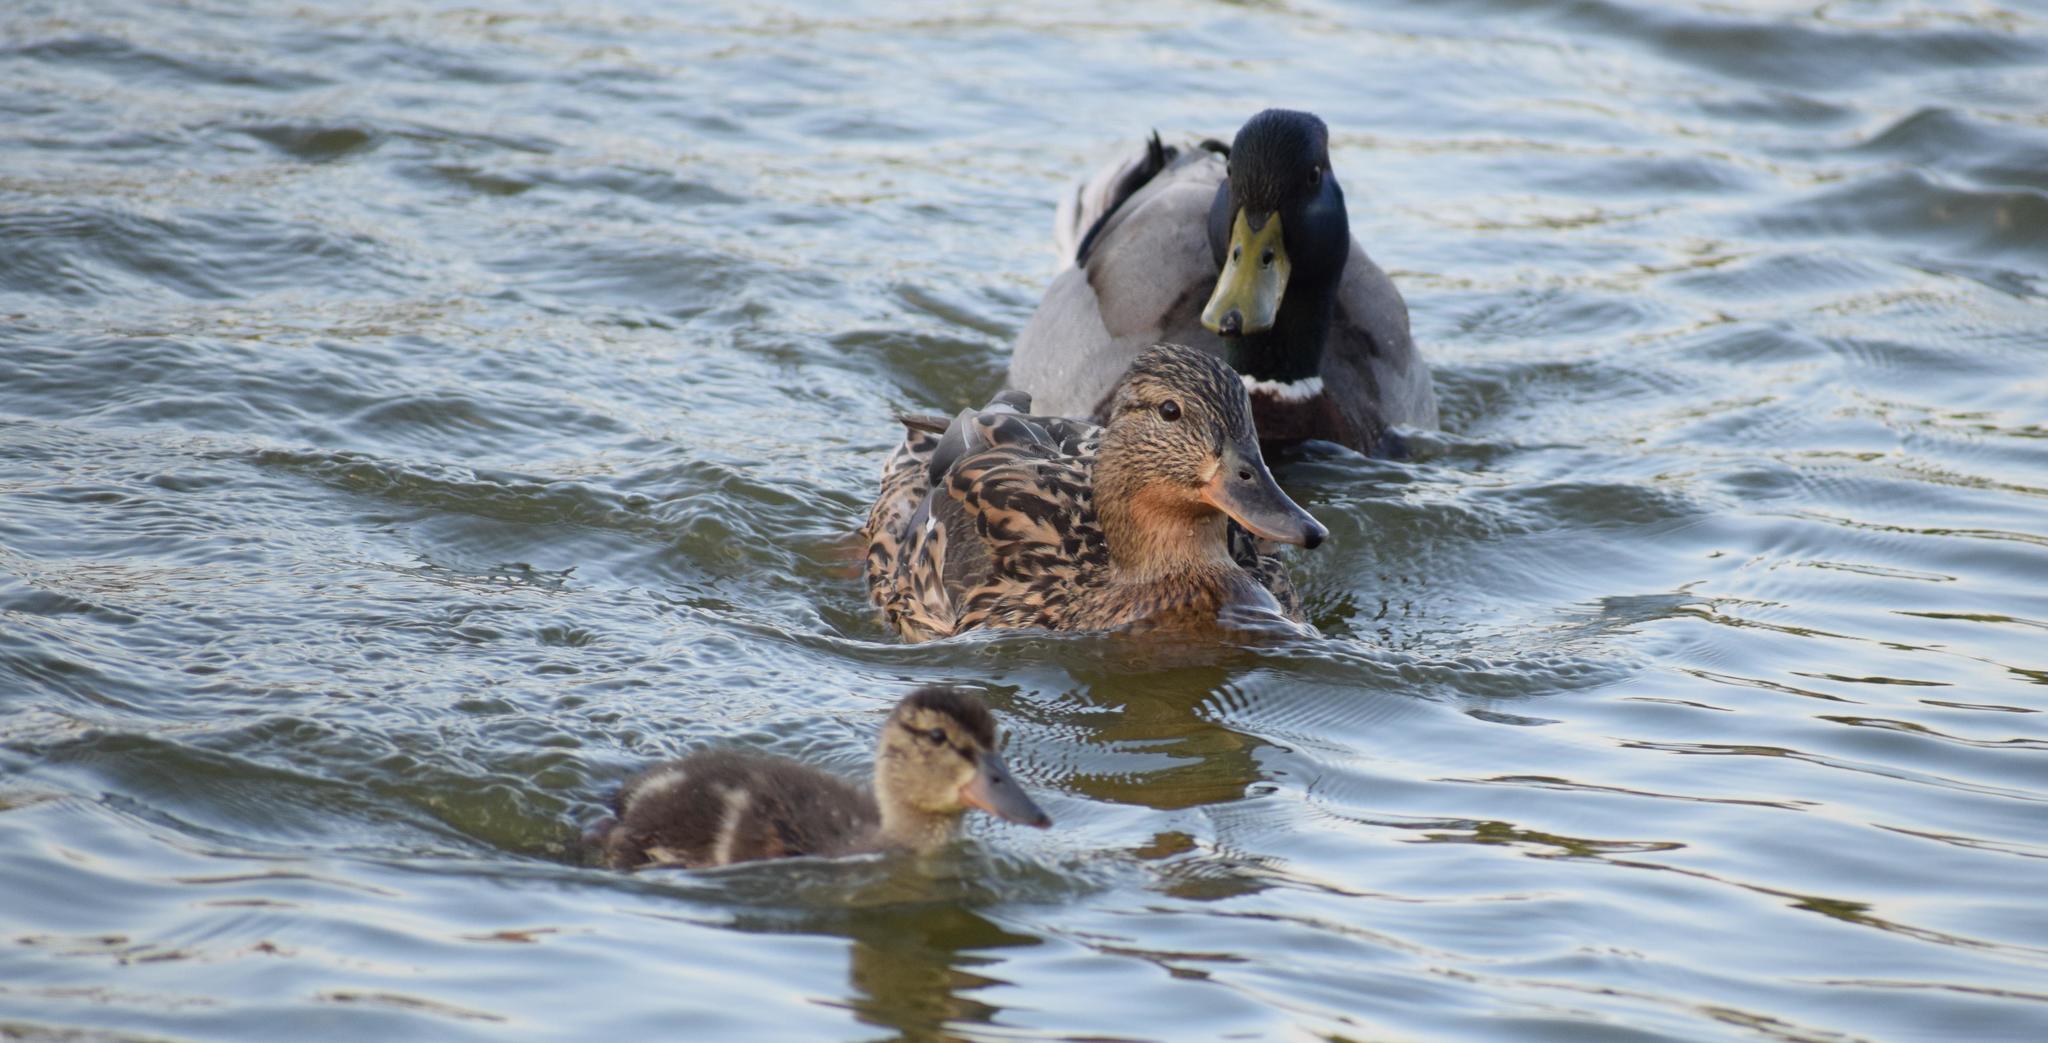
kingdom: Animalia
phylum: Chordata
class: Aves
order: Anseriformes
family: Anatidae
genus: Anas
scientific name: Anas platyrhynchos
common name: Mallard
